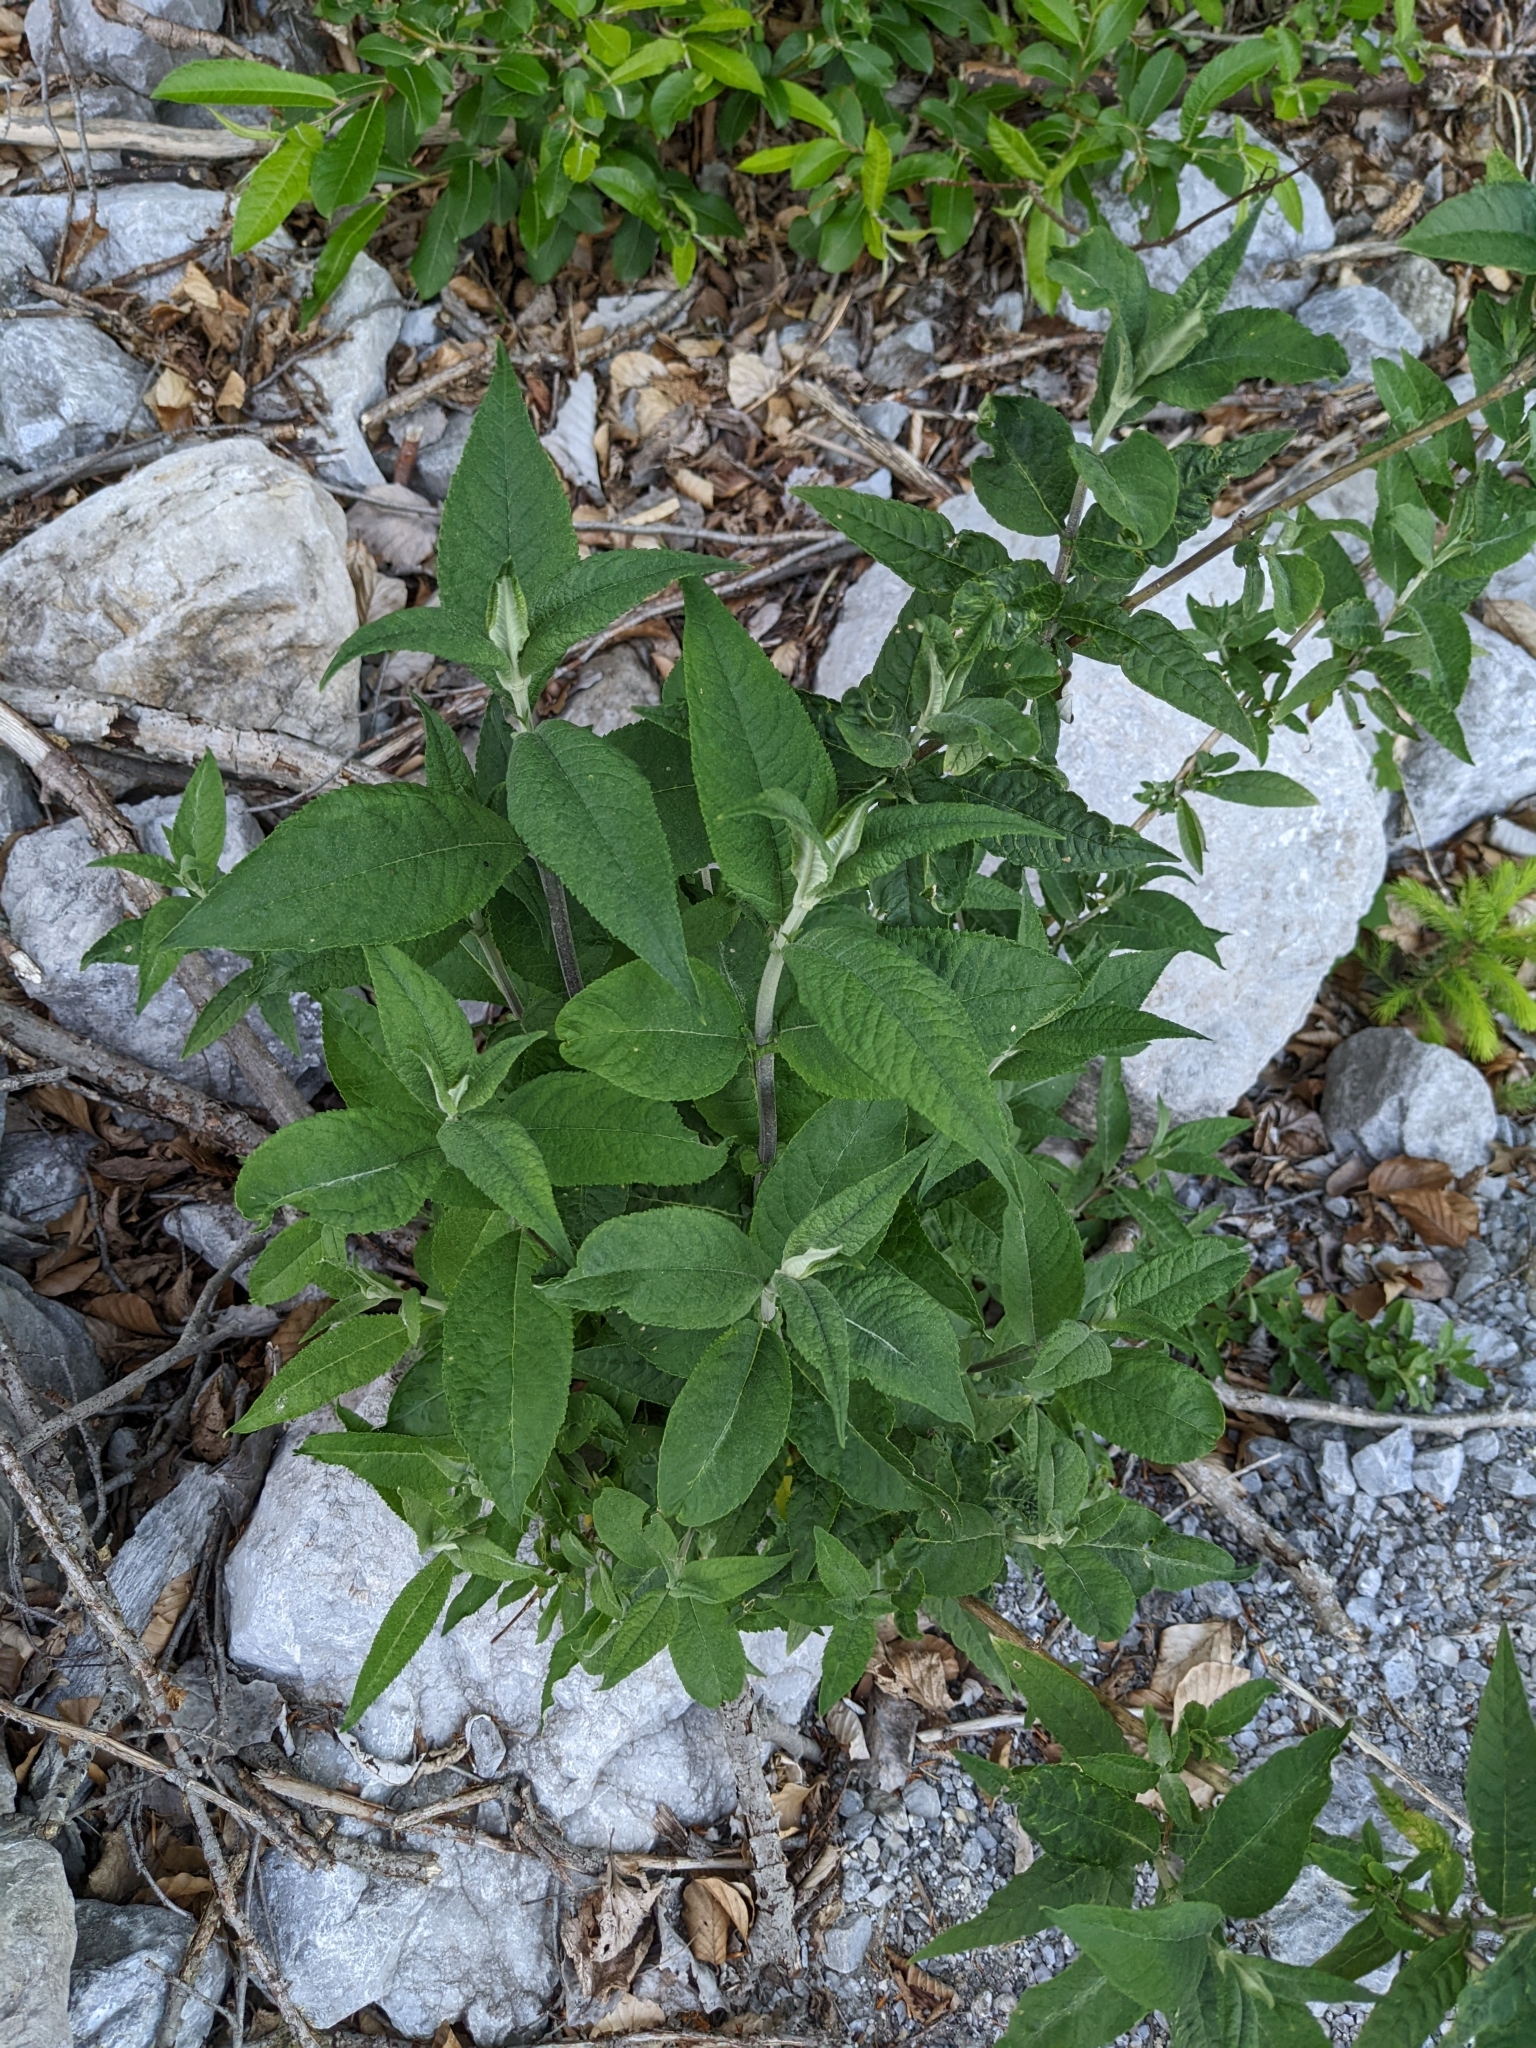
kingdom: Plantae
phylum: Tracheophyta
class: Magnoliopsida
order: Lamiales
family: Scrophulariaceae
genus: Buddleja
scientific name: Buddleja davidii
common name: Butterfly-bush
